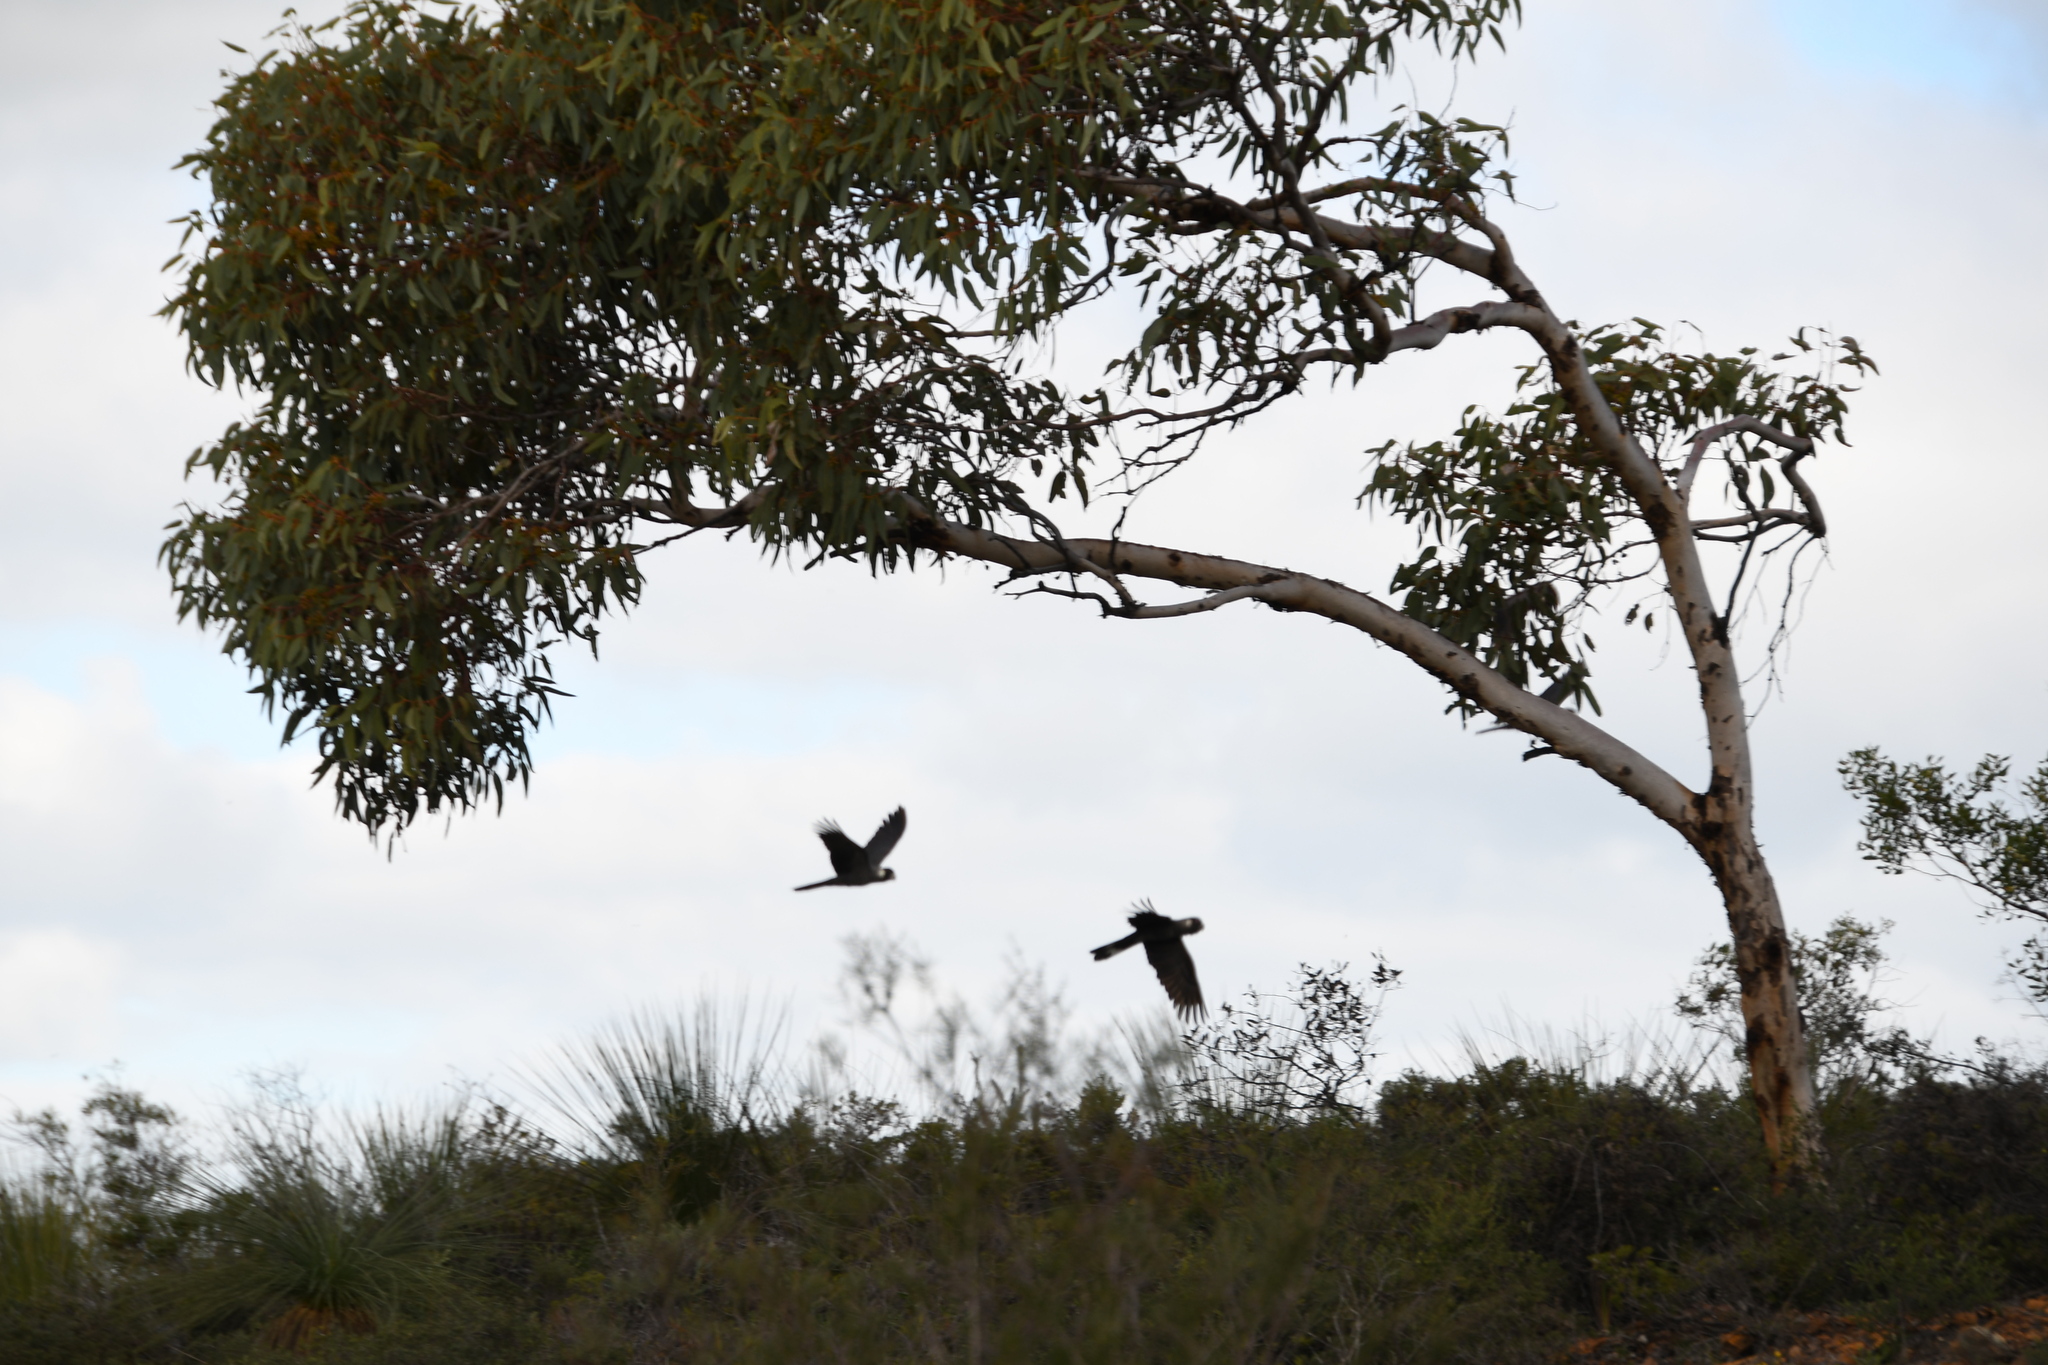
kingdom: Animalia
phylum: Chordata
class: Aves
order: Psittaciformes
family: Cacatuidae
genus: Zanda
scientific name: Zanda latirostris
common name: Short-billed black-cockatoo
